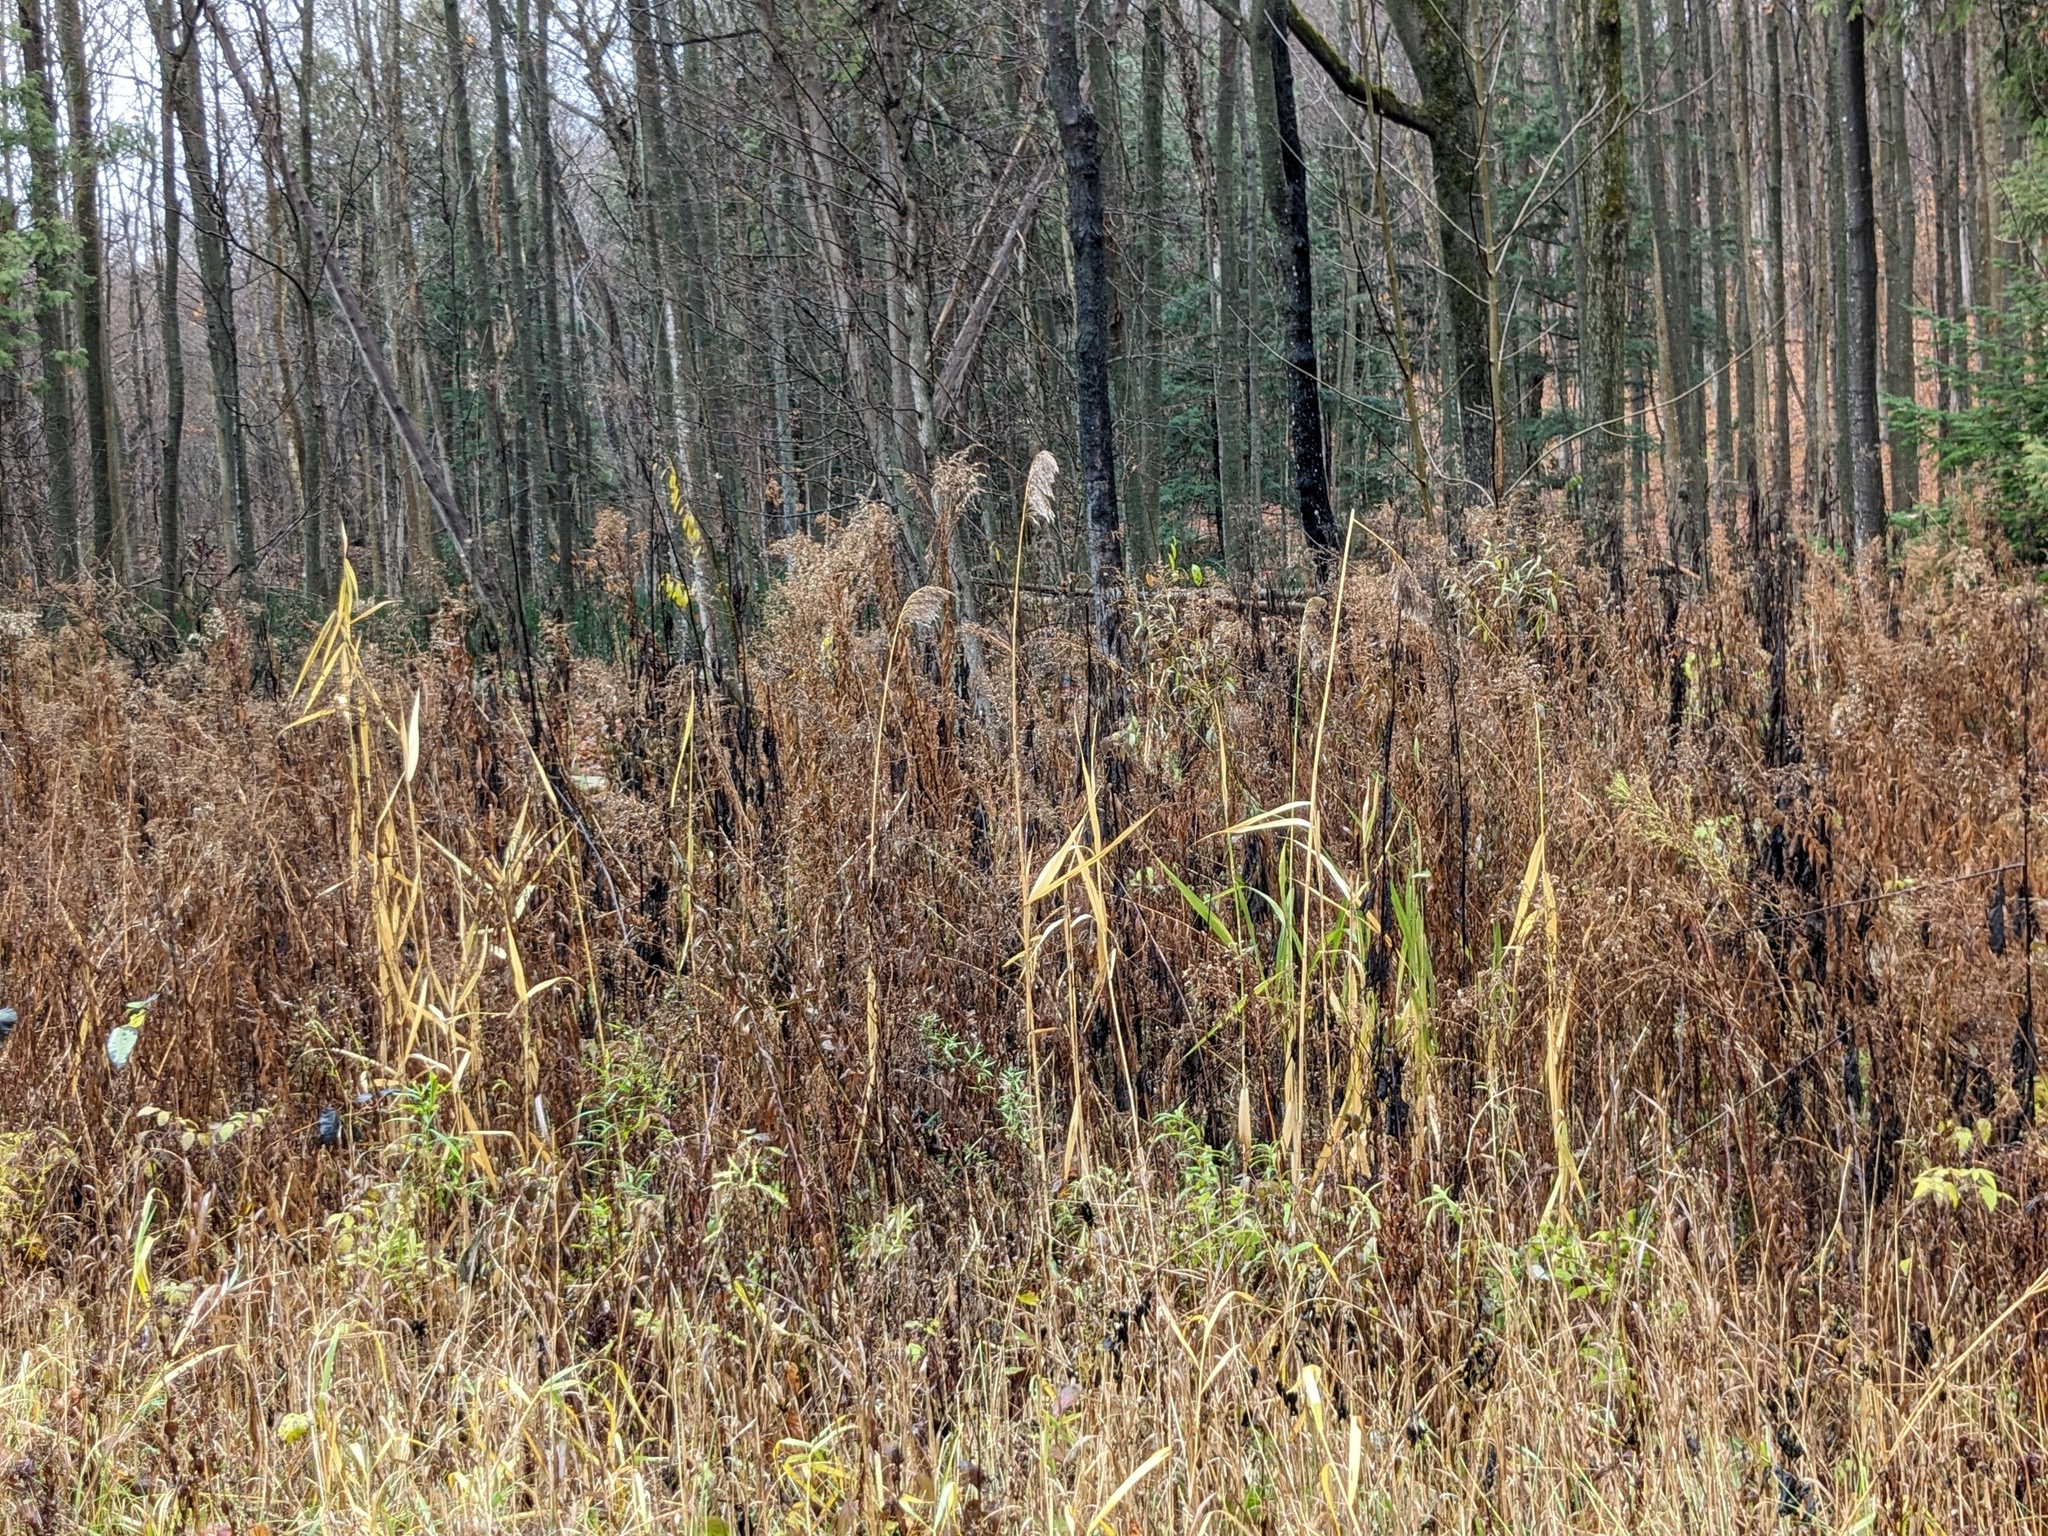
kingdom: Plantae
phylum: Tracheophyta
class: Liliopsida
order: Poales
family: Poaceae
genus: Phragmites
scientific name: Phragmites australis
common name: Common reed
